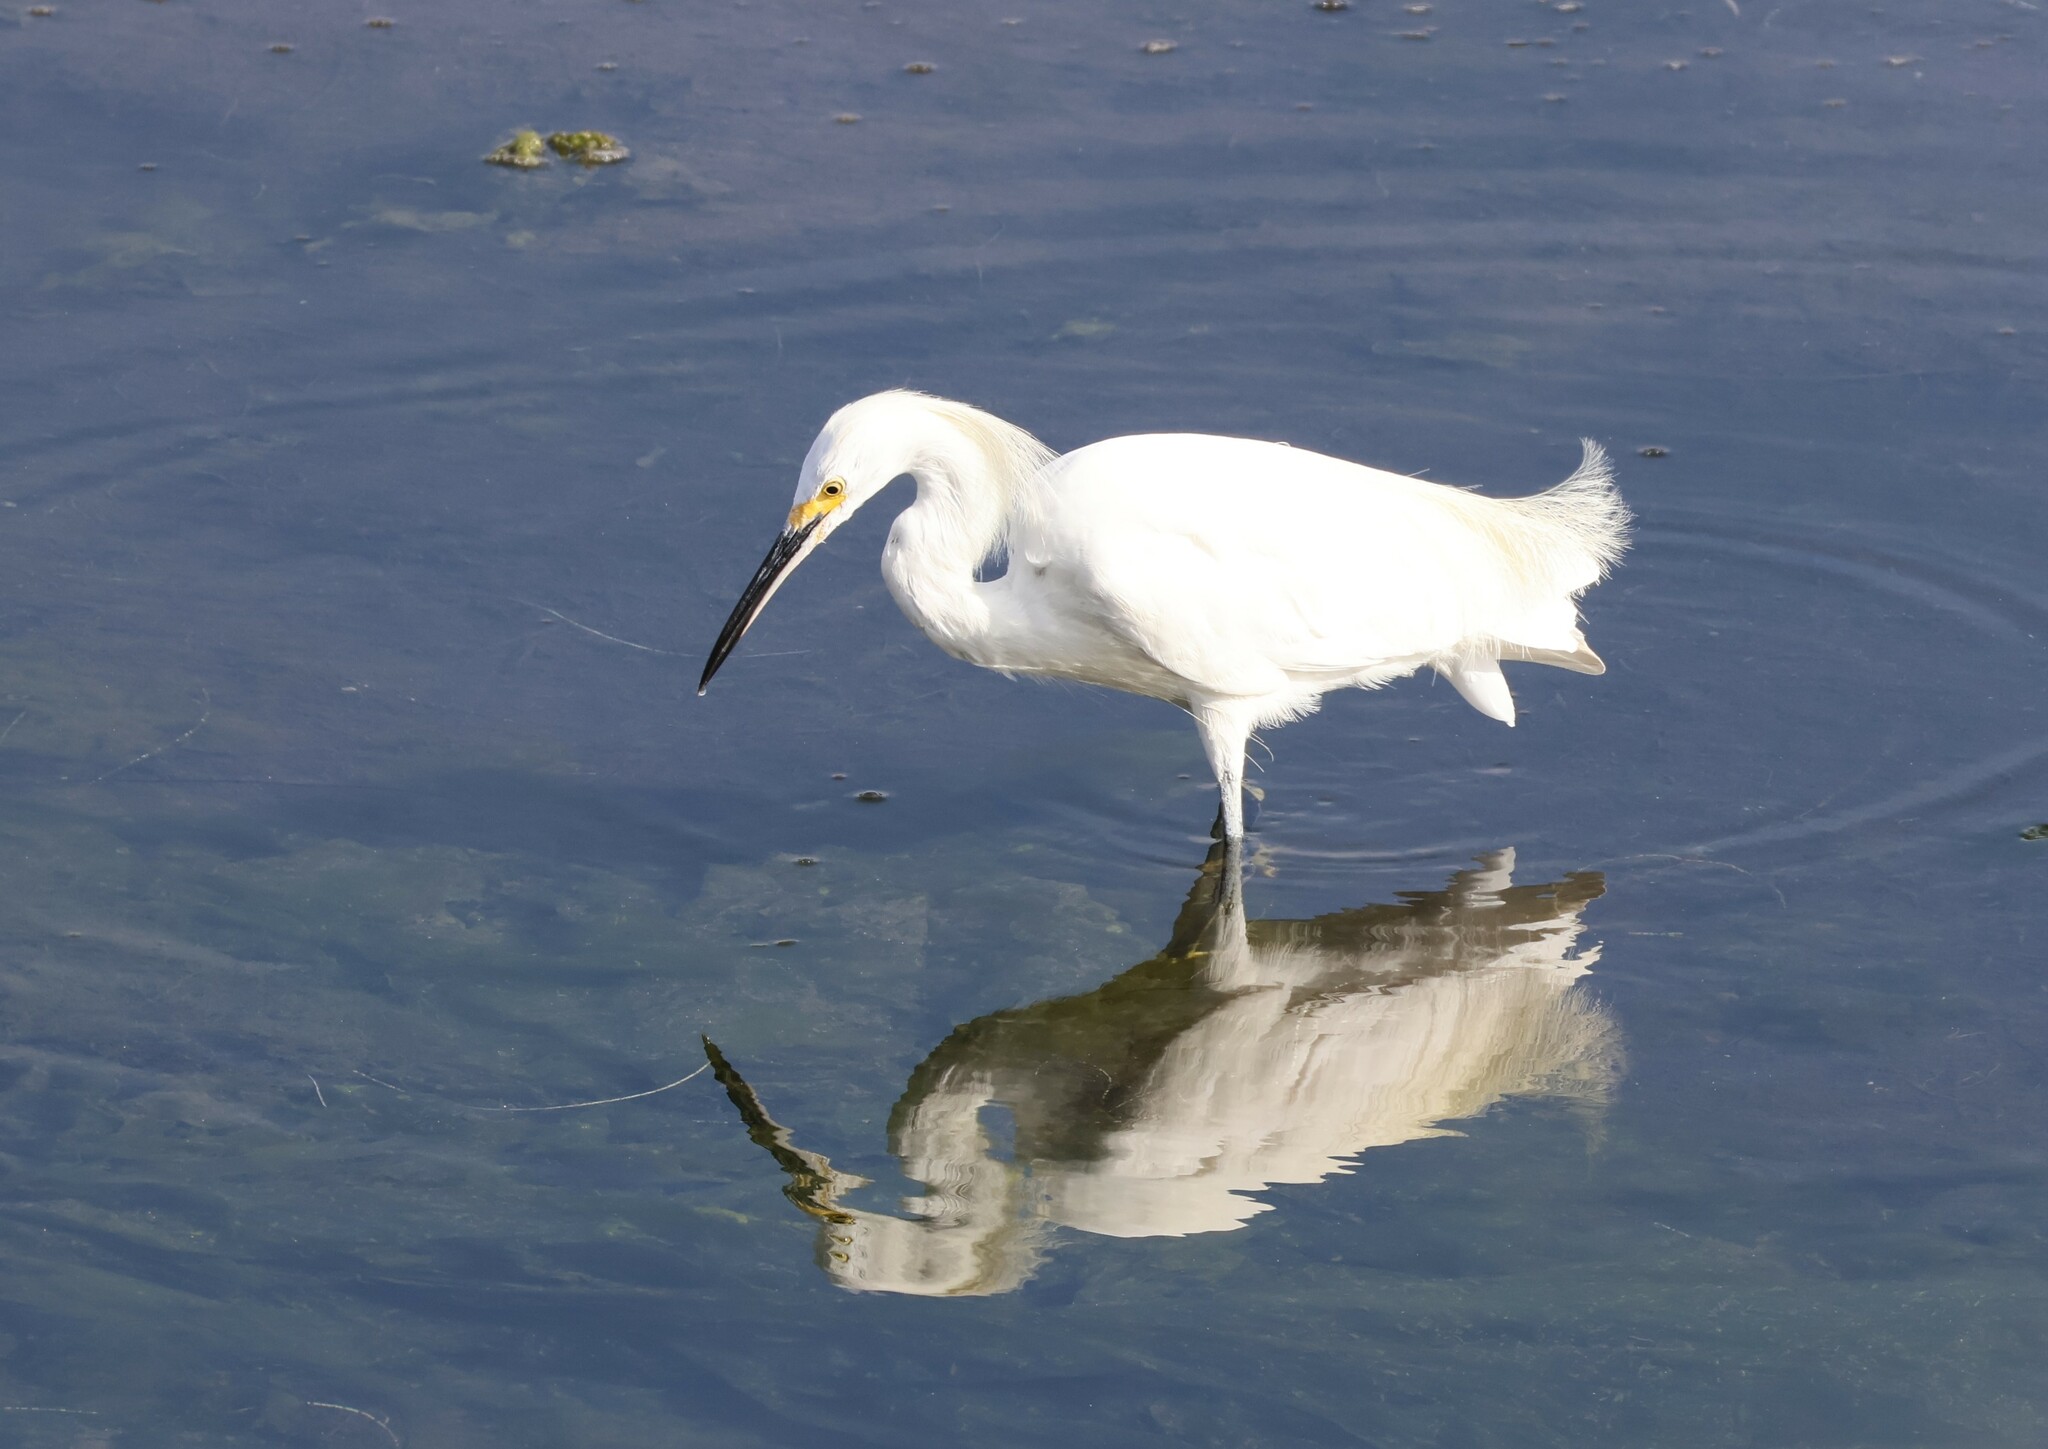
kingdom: Animalia
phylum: Chordata
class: Aves
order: Pelecaniformes
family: Ardeidae
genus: Egretta
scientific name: Egretta thula
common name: Snowy egret
